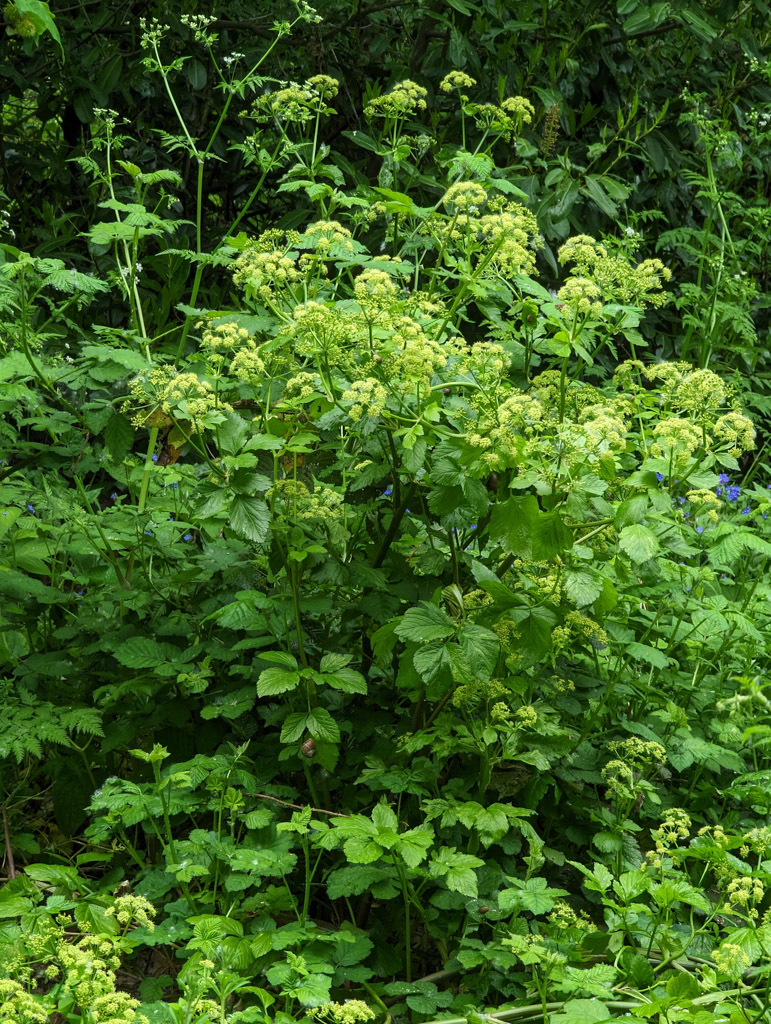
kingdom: Plantae
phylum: Tracheophyta
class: Magnoliopsida
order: Apiales
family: Apiaceae
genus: Smyrnium
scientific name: Smyrnium olusatrum
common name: Alexanders
